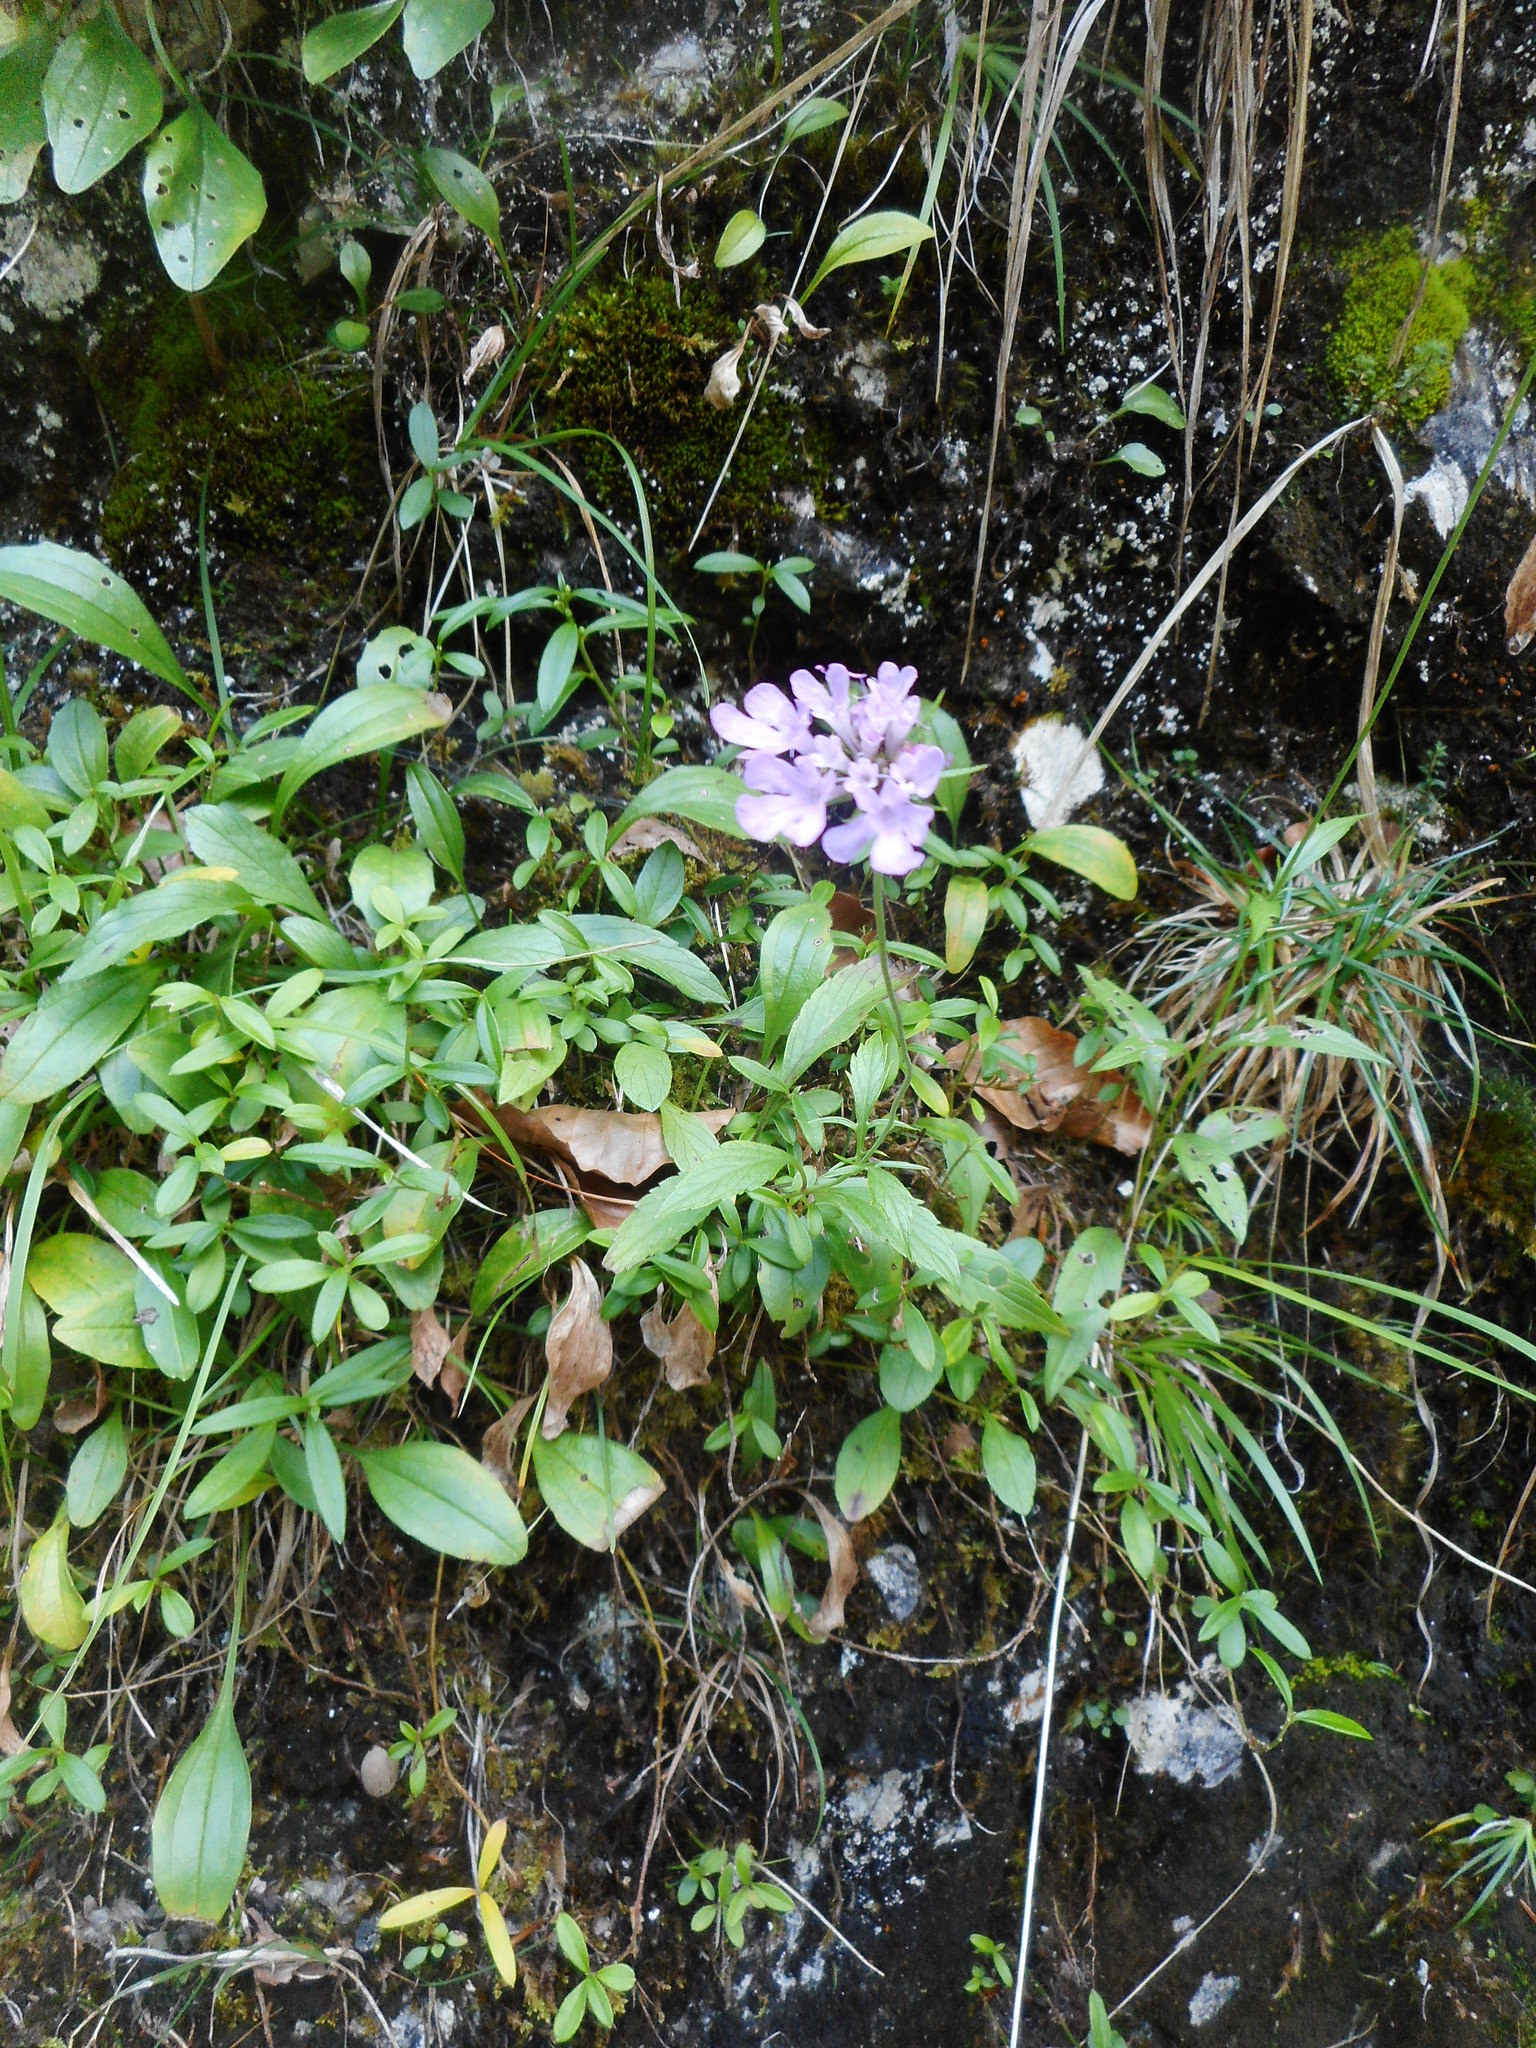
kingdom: Plantae
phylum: Tracheophyta
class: Magnoliopsida
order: Dipsacales
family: Caprifoliaceae
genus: Scabiosa
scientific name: Scabiosa lucida
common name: Shining scabious
